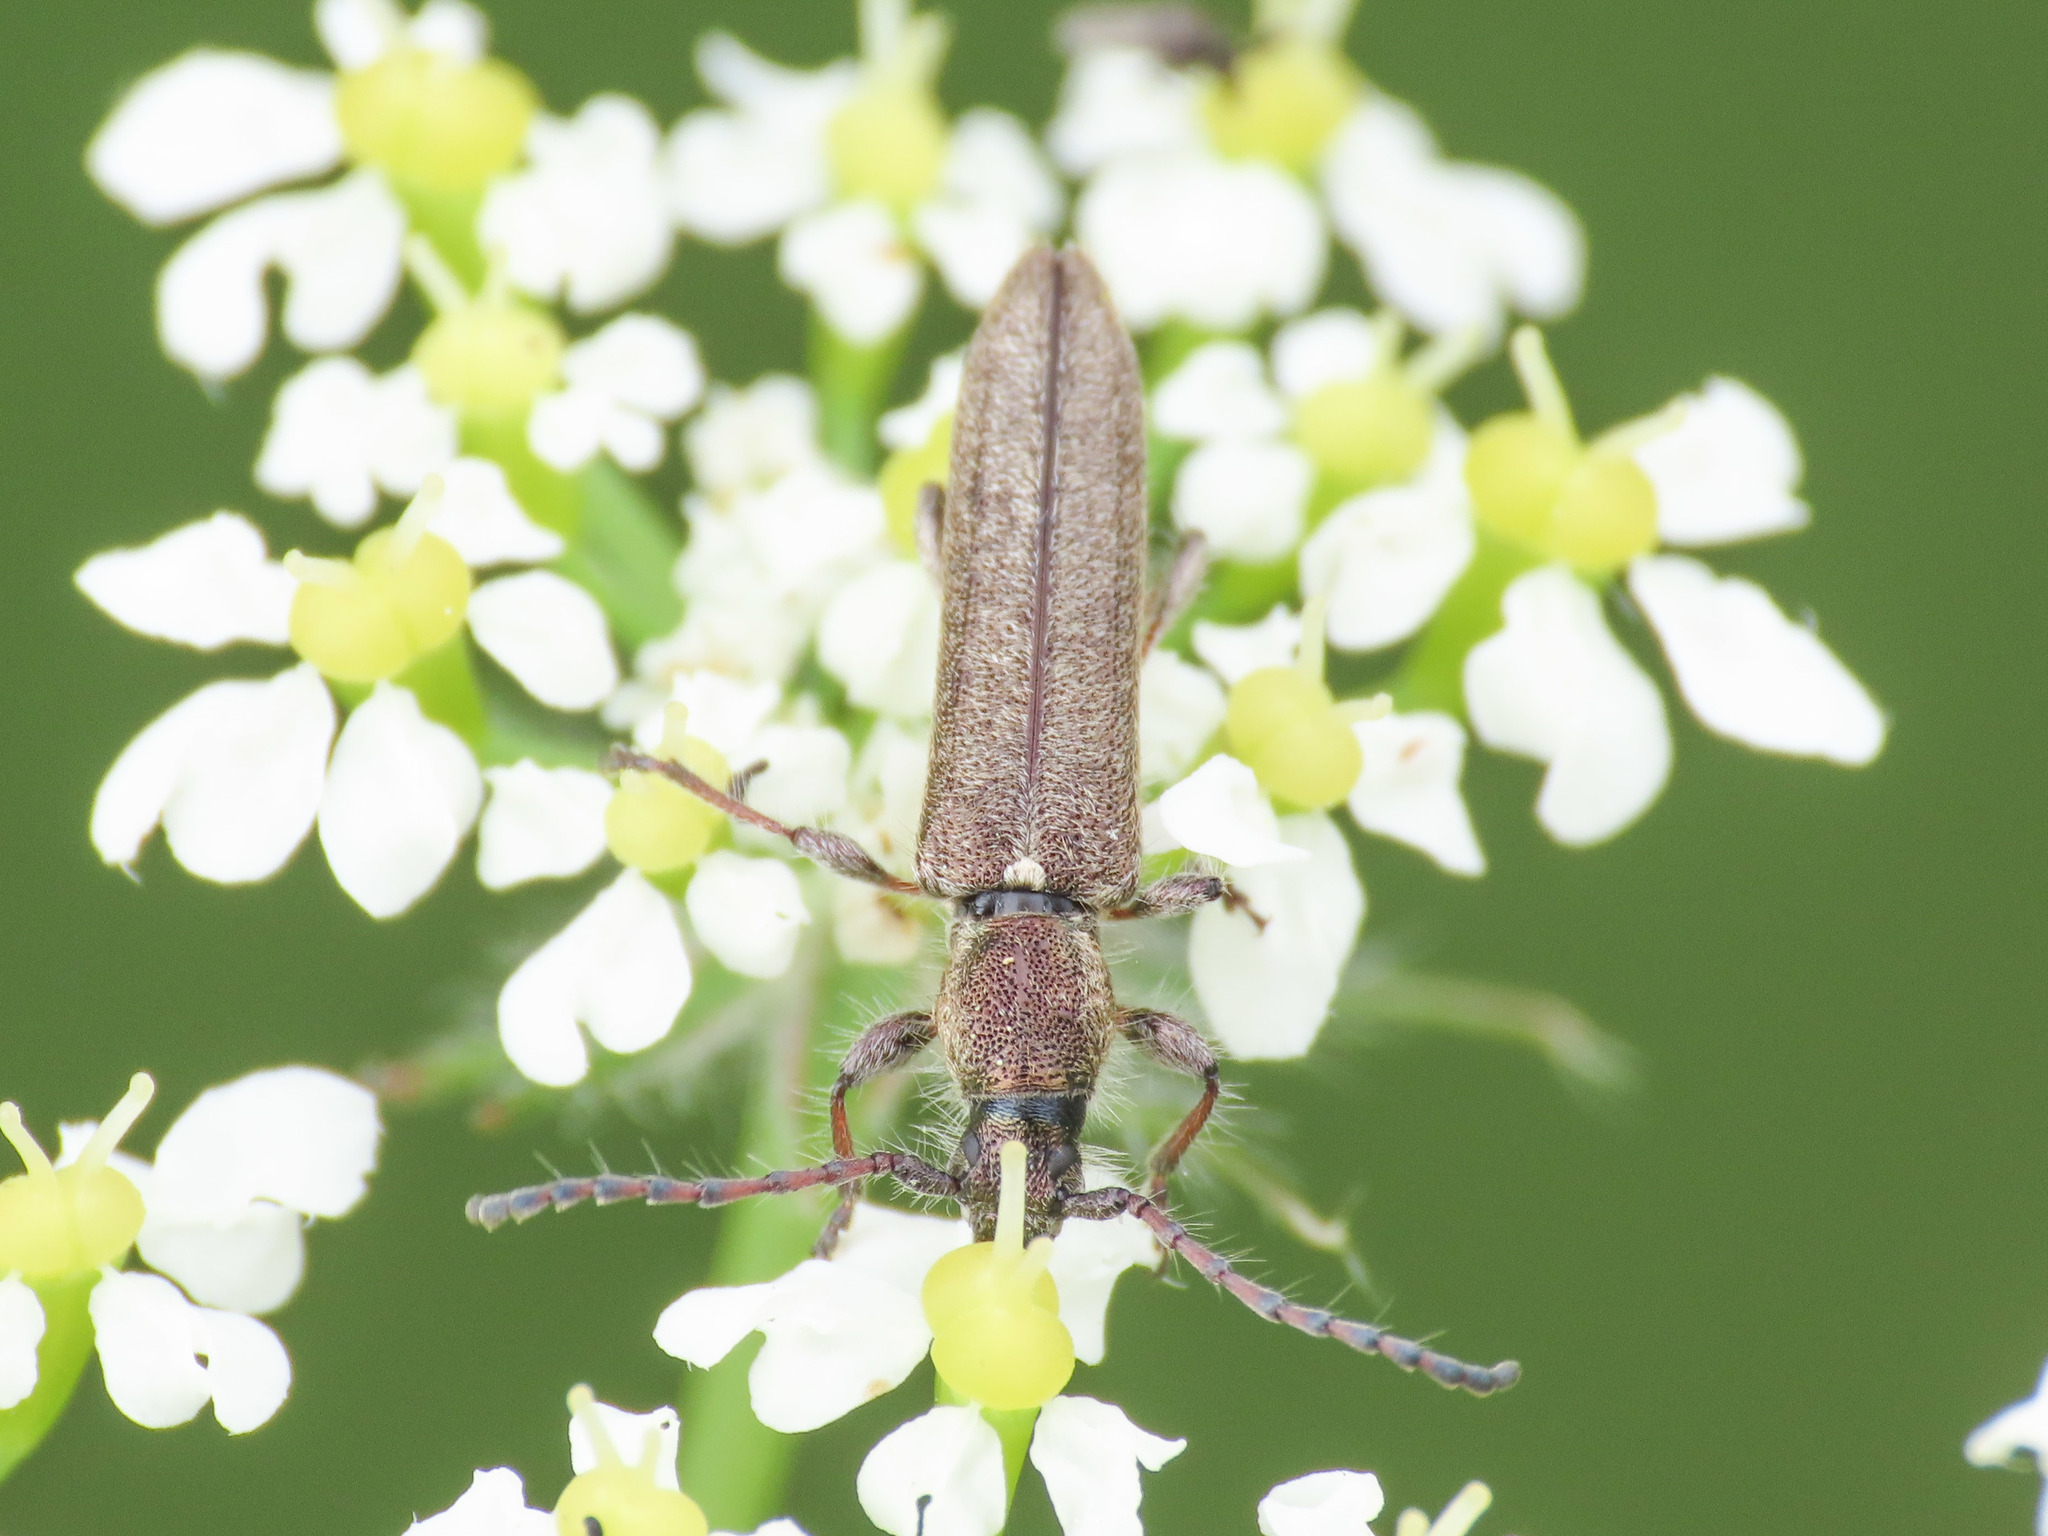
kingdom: Animalia
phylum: Arthropoda
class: Insecta
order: Coleoptera
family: Cerambycidae
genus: Deilus
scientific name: Deilus fugax
